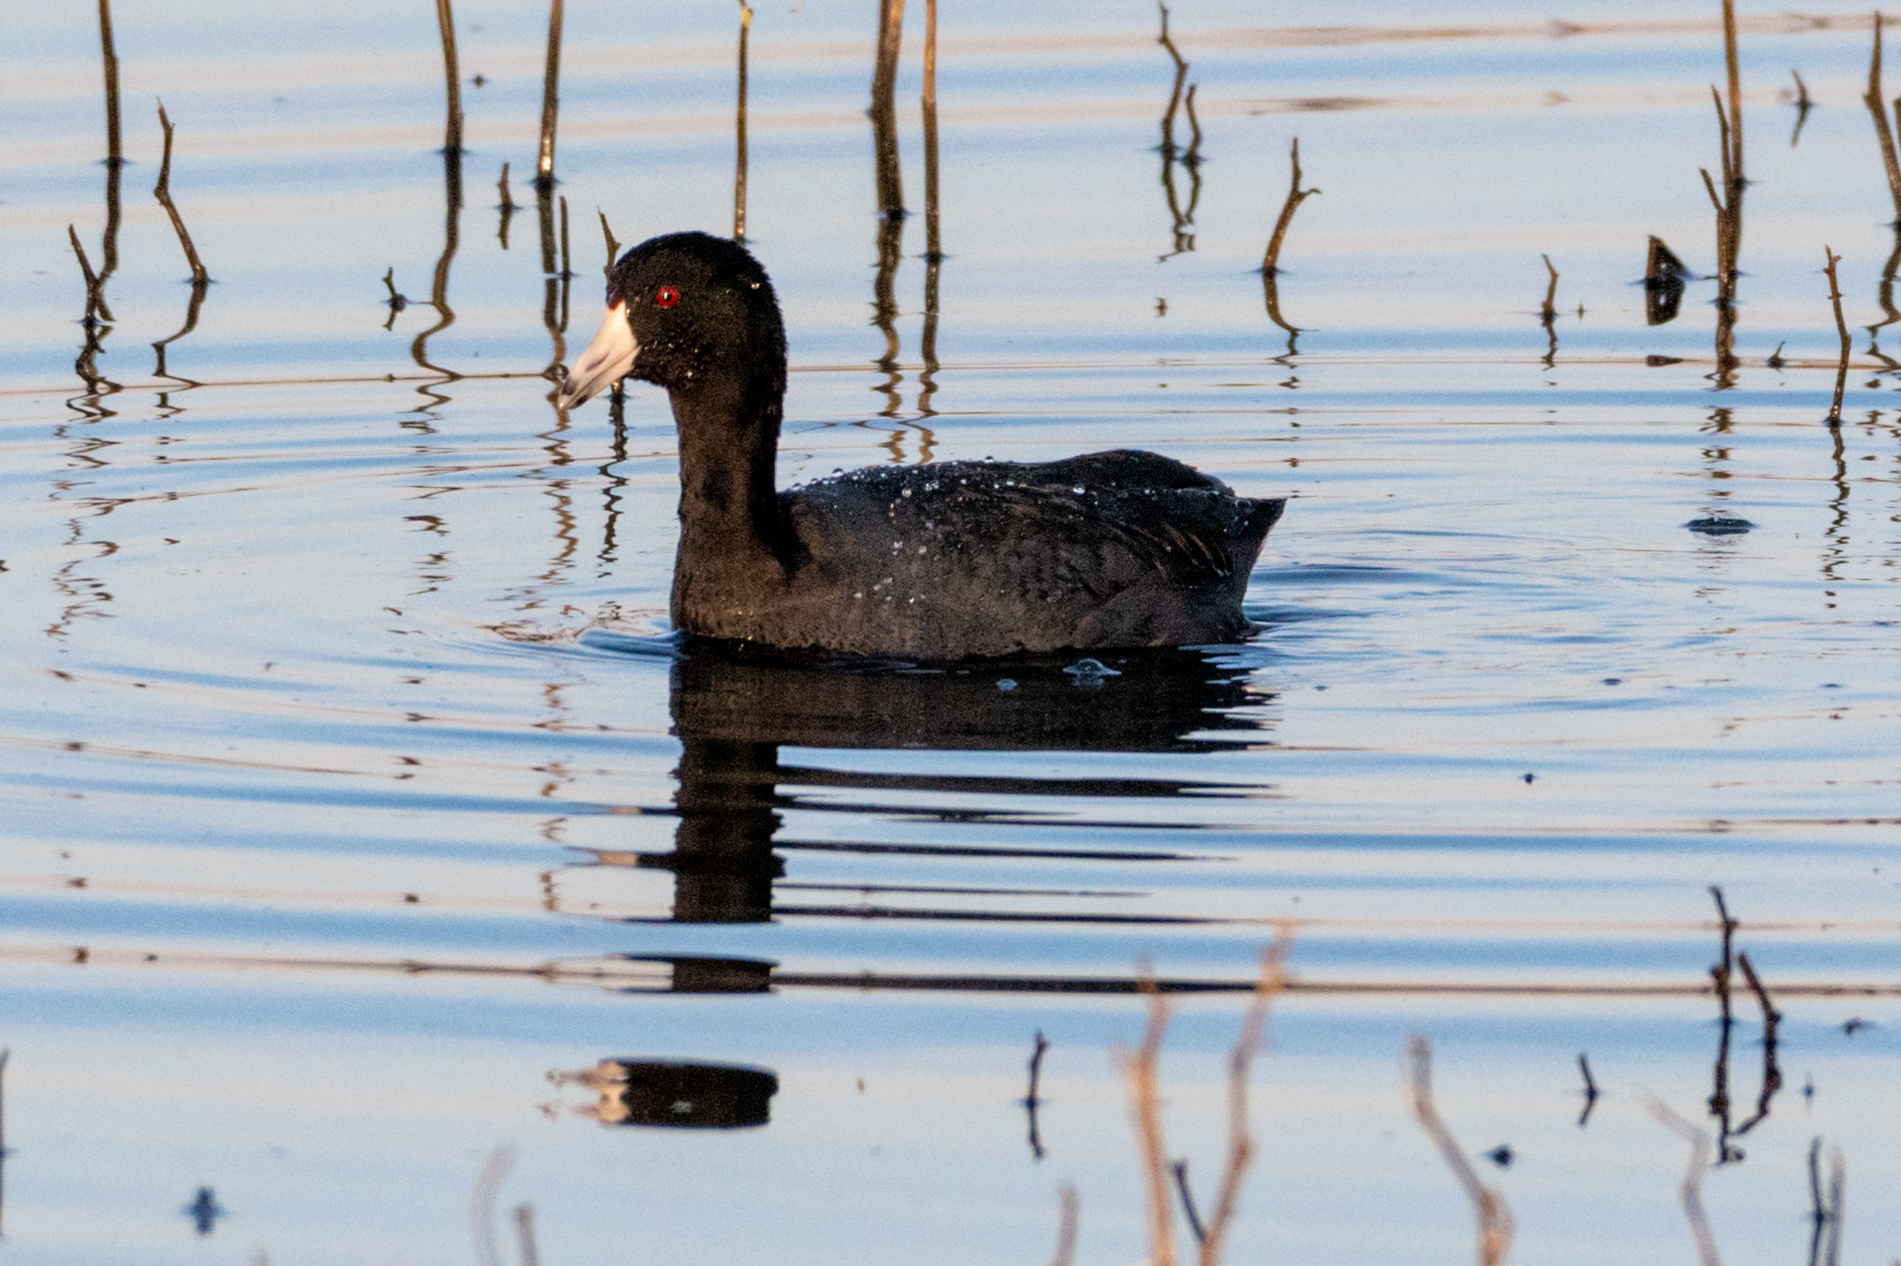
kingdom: Animalia
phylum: Chordata
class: Aves
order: Gruiformes
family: Rallidae
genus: Fulica
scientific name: Fulica americana
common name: American coot
